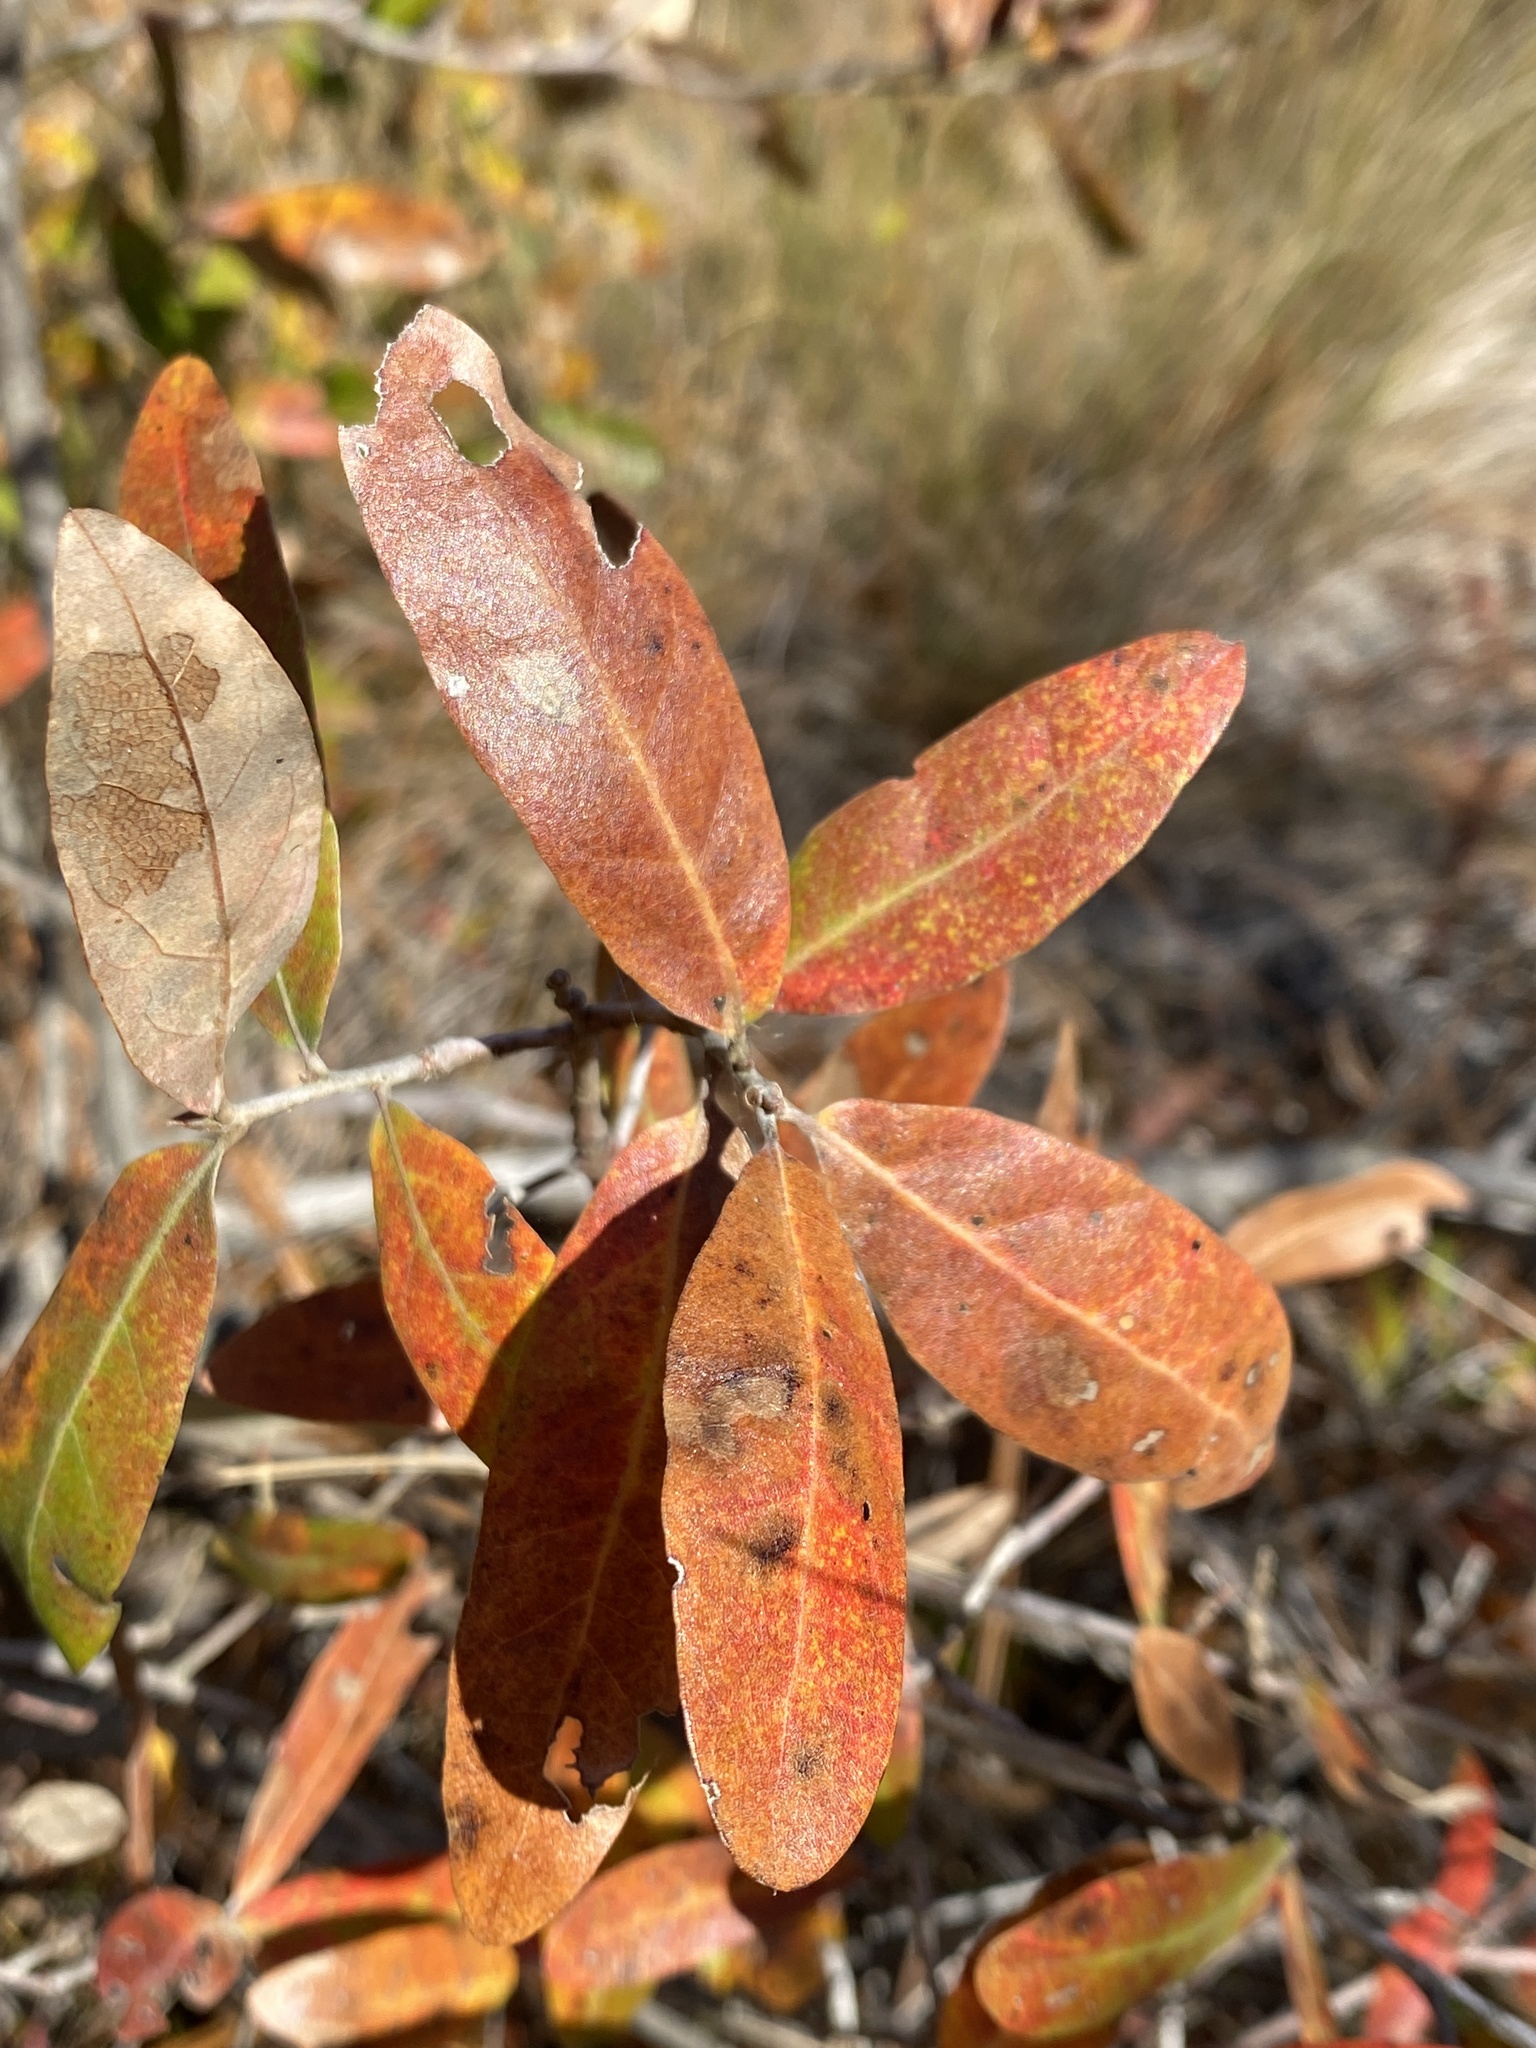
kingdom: Plantae
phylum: Tracheophyta
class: Magnoliopsida
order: Fagales
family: Fagaceae
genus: Quercus
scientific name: Quercus incana
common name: Bluejack oak
